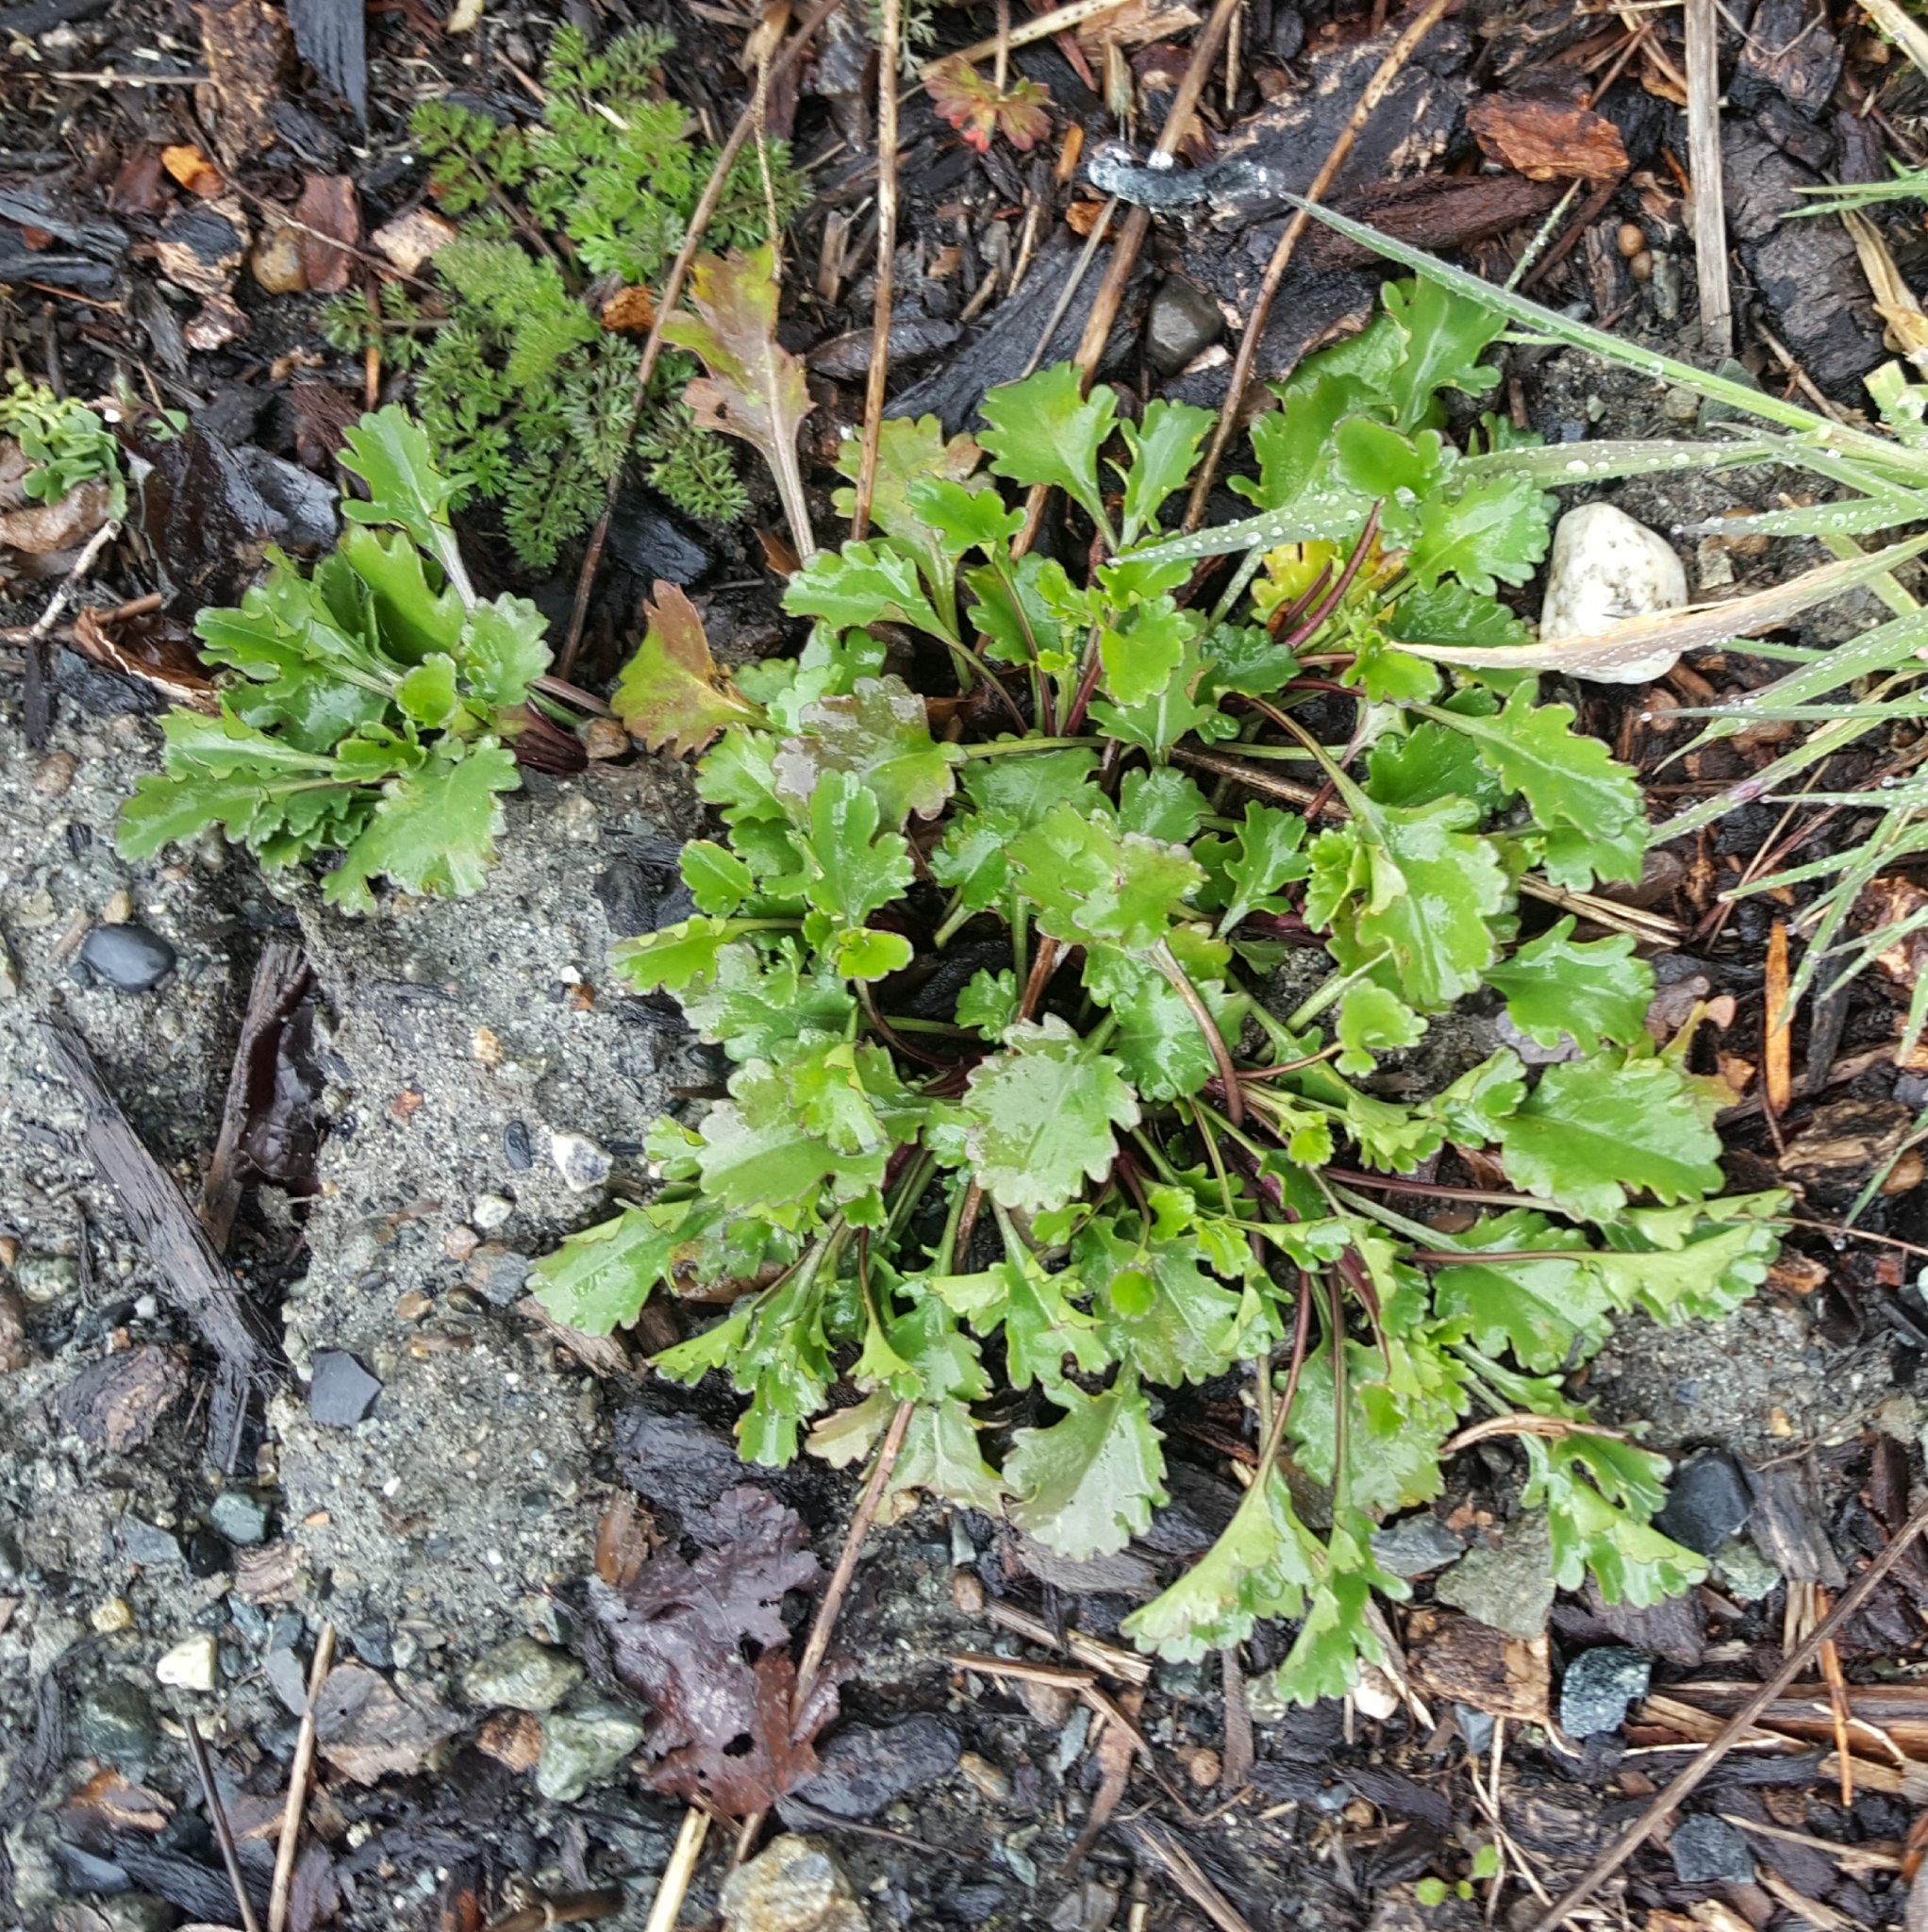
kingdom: Plantae
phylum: Tracheophyta
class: Magnoliopsida
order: Asterales
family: Asteraceae
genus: Leucanthemum
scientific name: Leucanthemum vulgare
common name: Oxeye daisy
